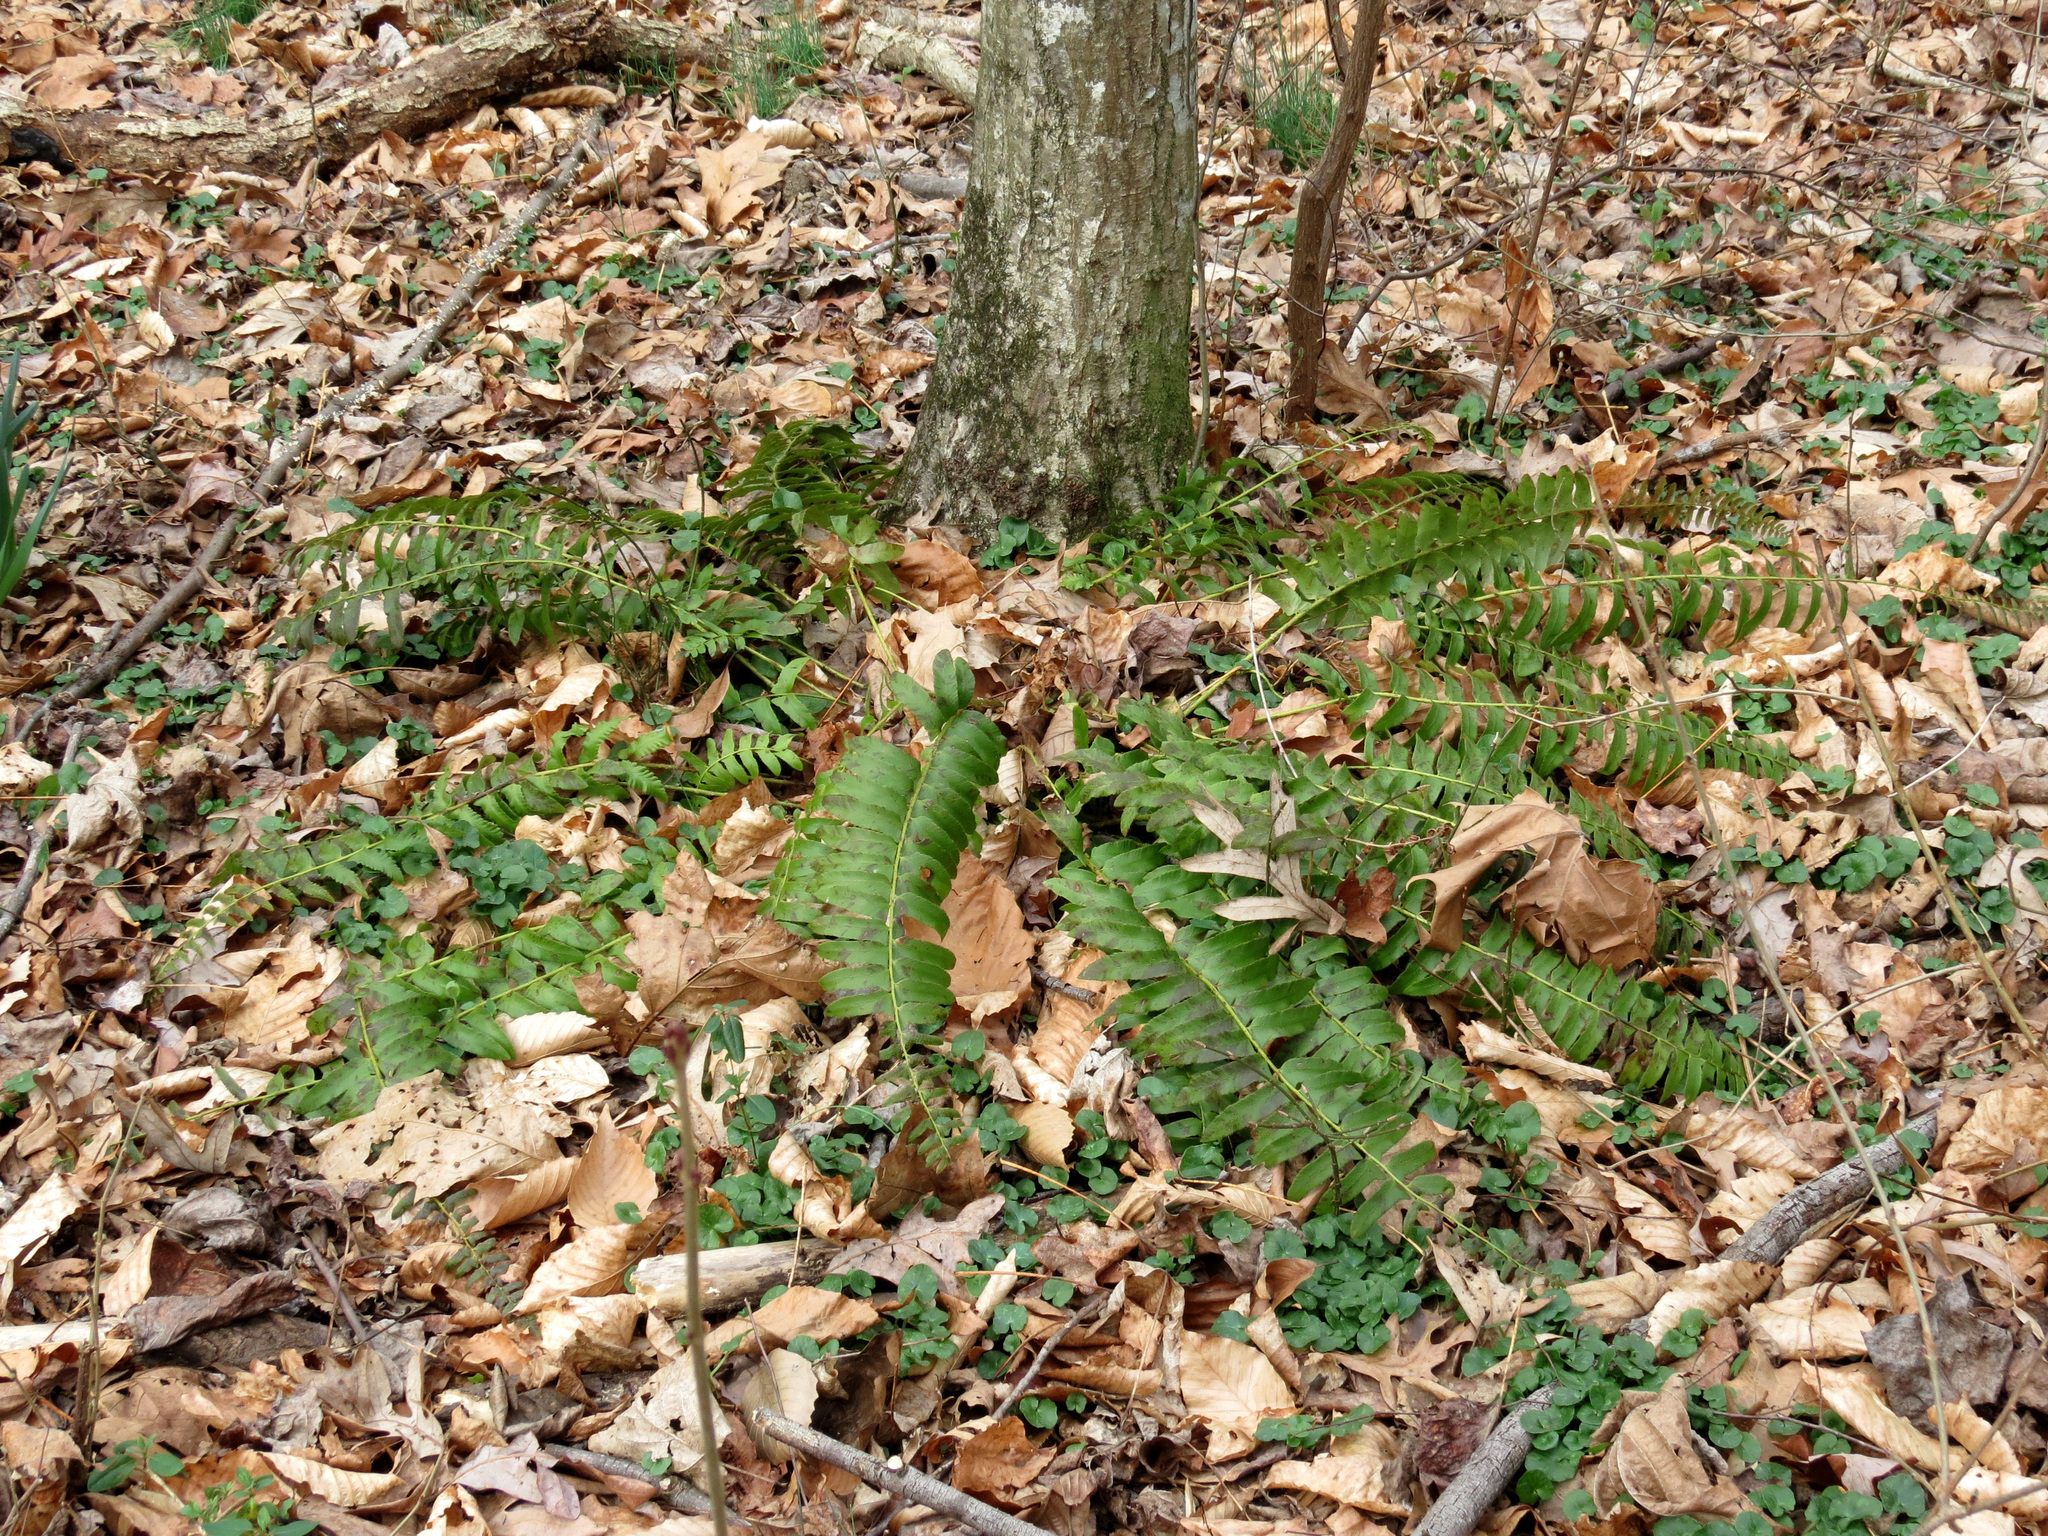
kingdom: Plantae
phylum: Tracheophyta
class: Polypodiopsida
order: Polypodiales
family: Dryopteridaceae
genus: Polystichum
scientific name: Polystichum acrostichoides
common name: Christmas fern
